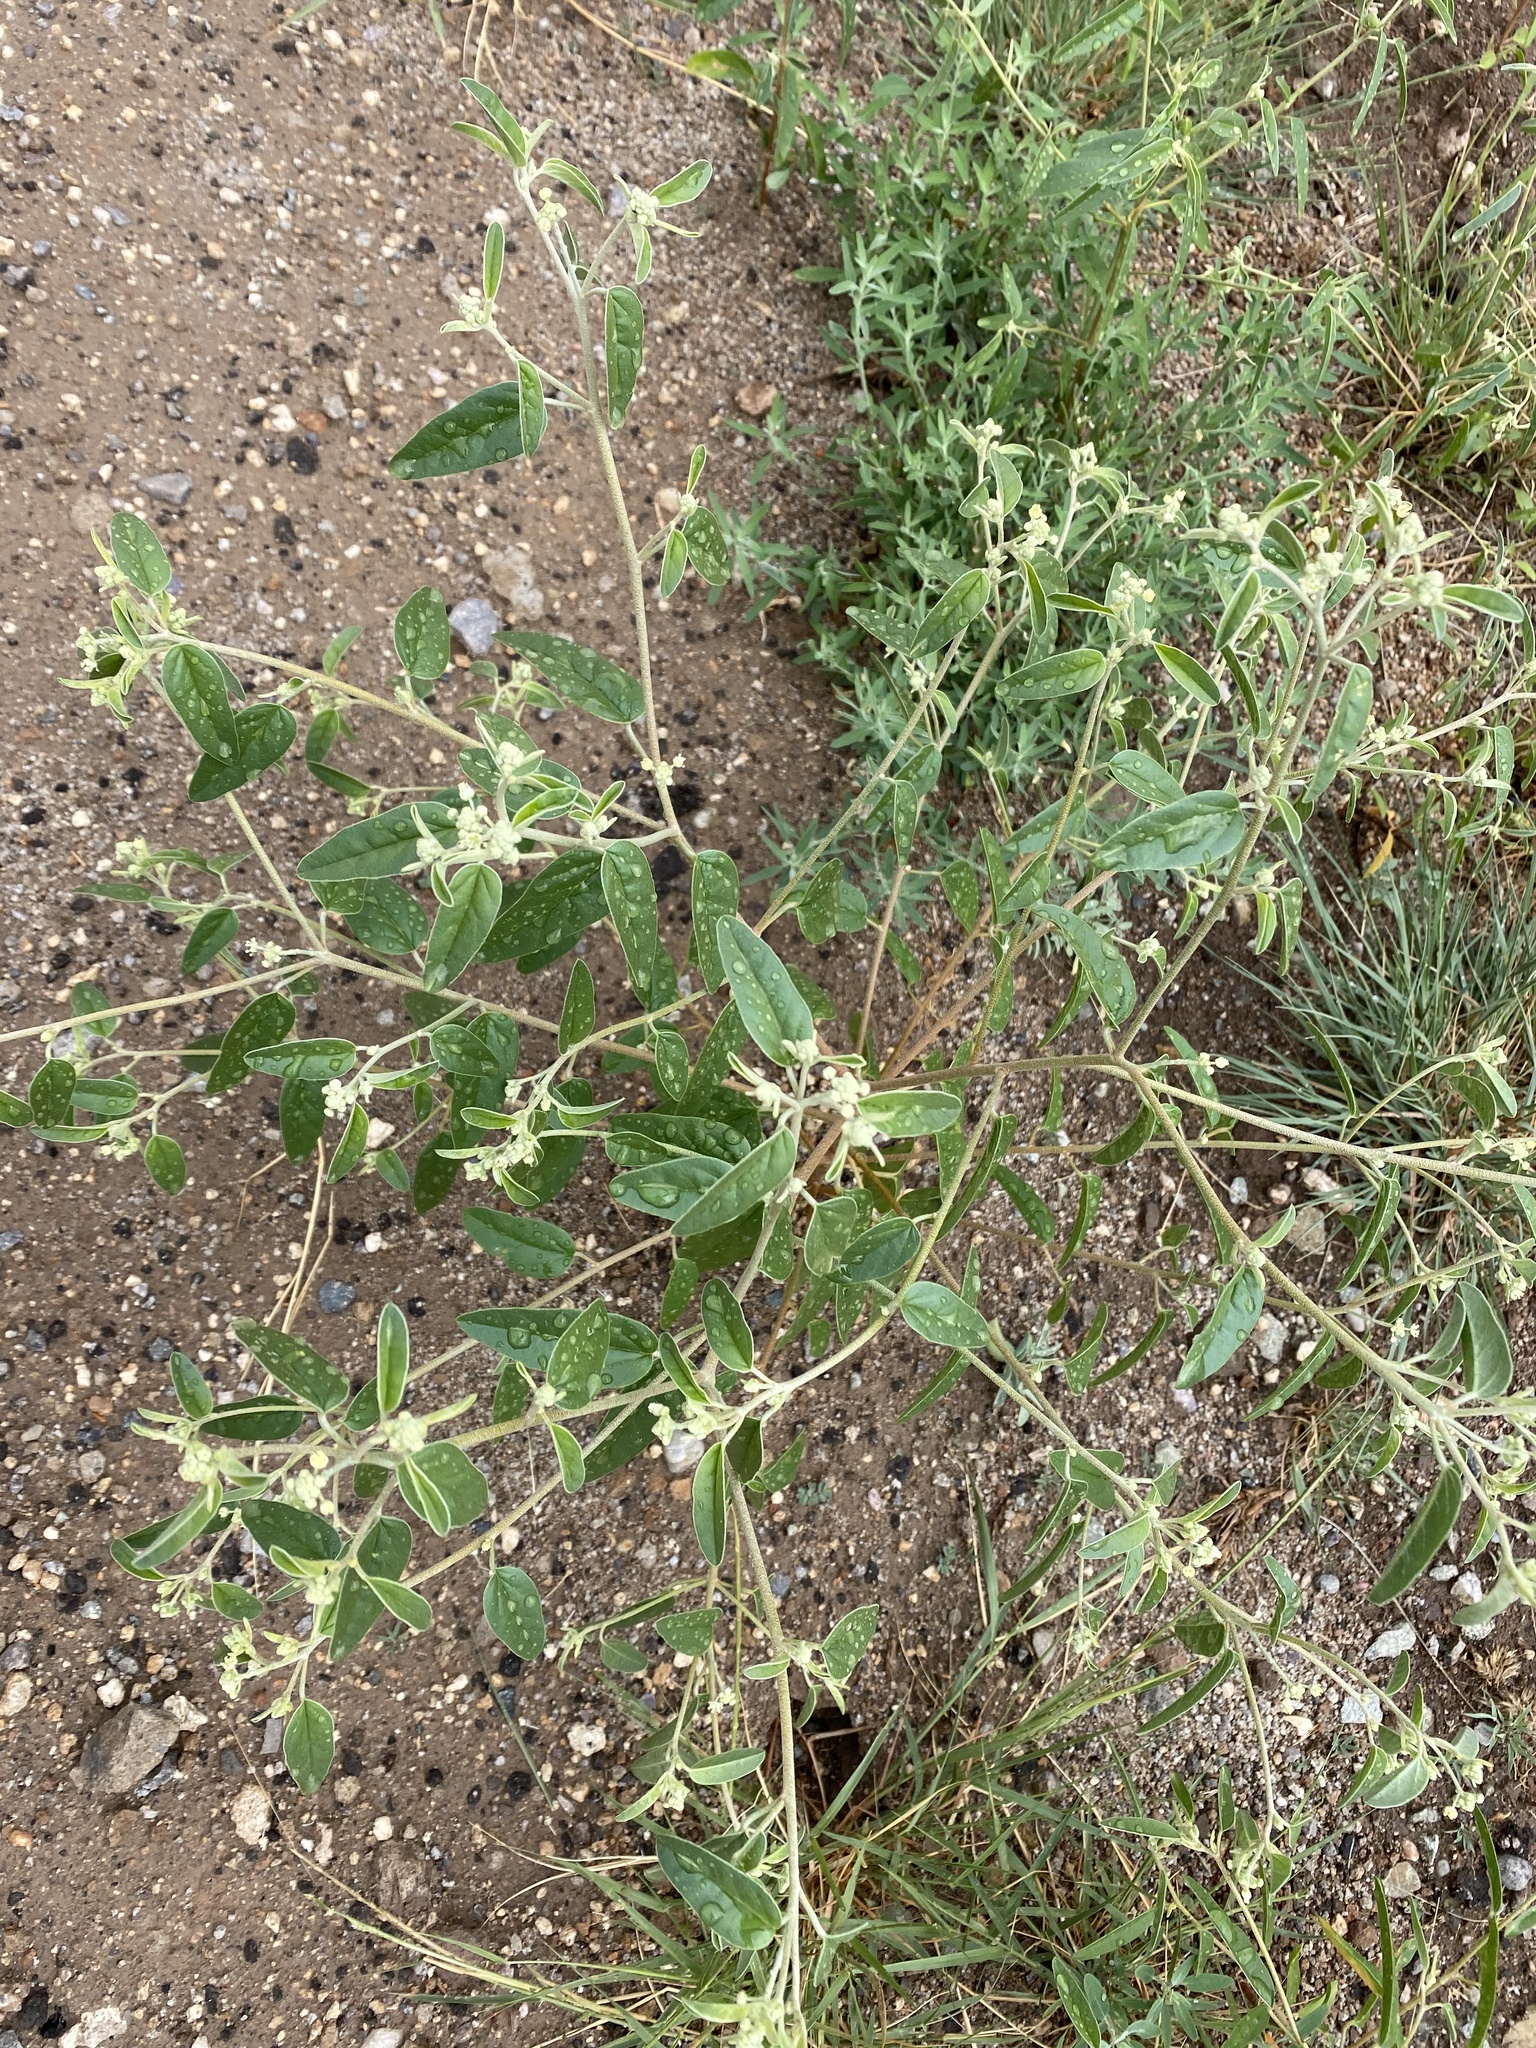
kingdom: Plantae
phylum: Tracheophyta
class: Magnoliopsida
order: Malpighiales
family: Euphorbiaceae
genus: Croton
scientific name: Croton texensis
